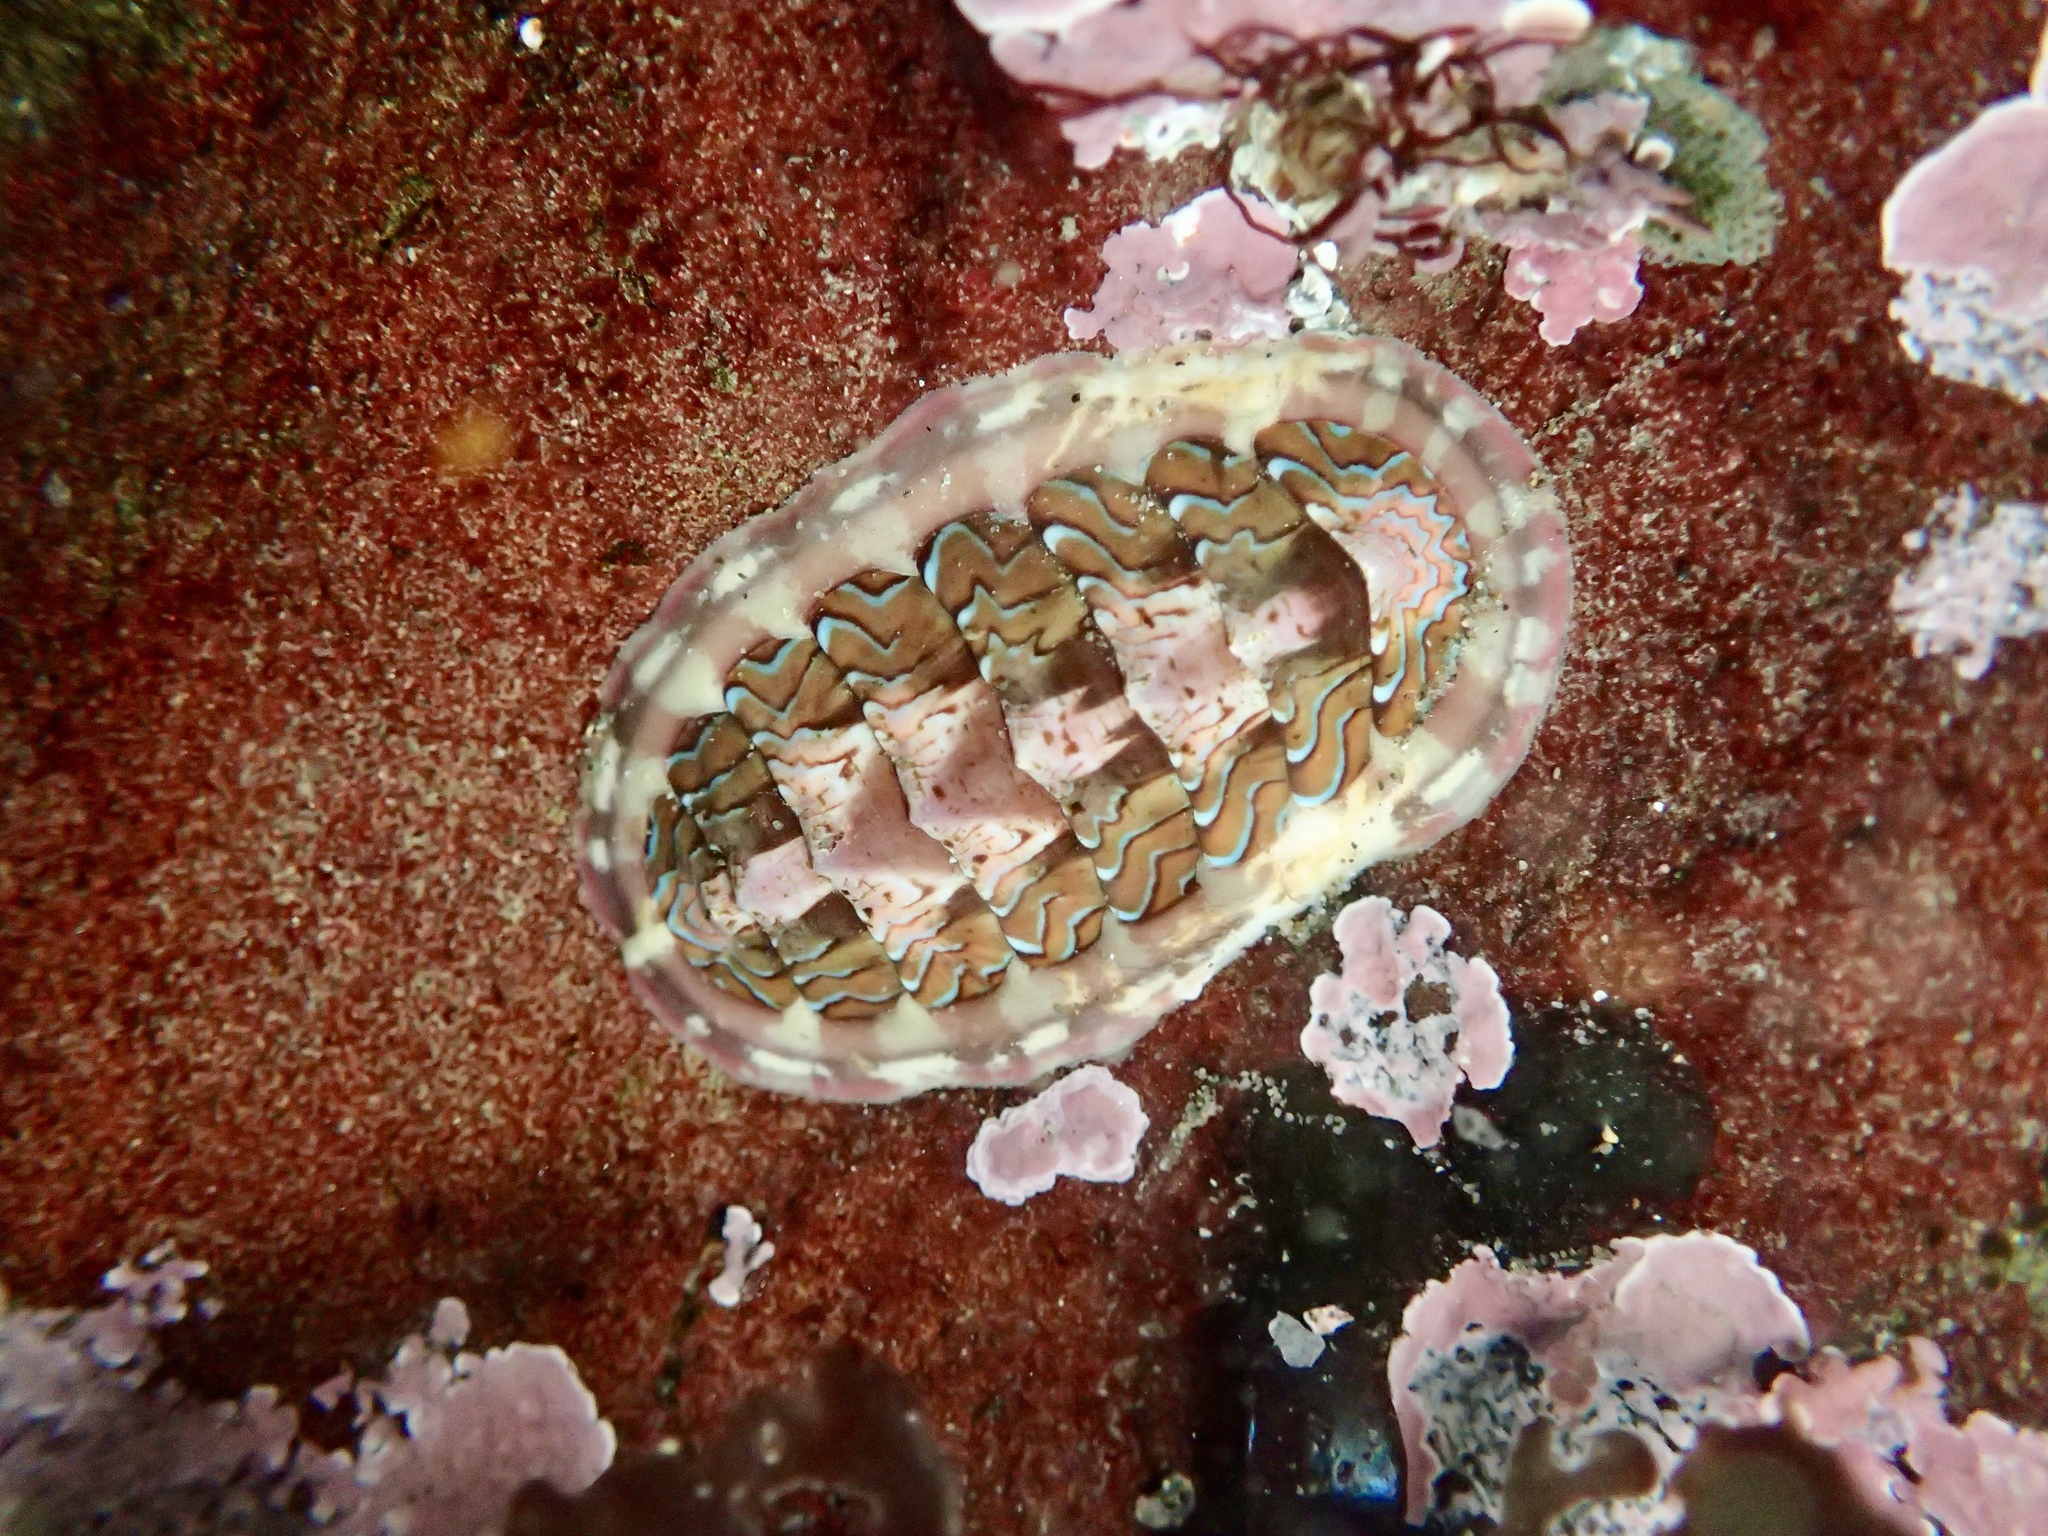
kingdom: Animalia
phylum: Mollusca
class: Polyplacophora
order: Chitonida
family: Tonicellidae
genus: Tonicella
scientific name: Tonicella lokii
